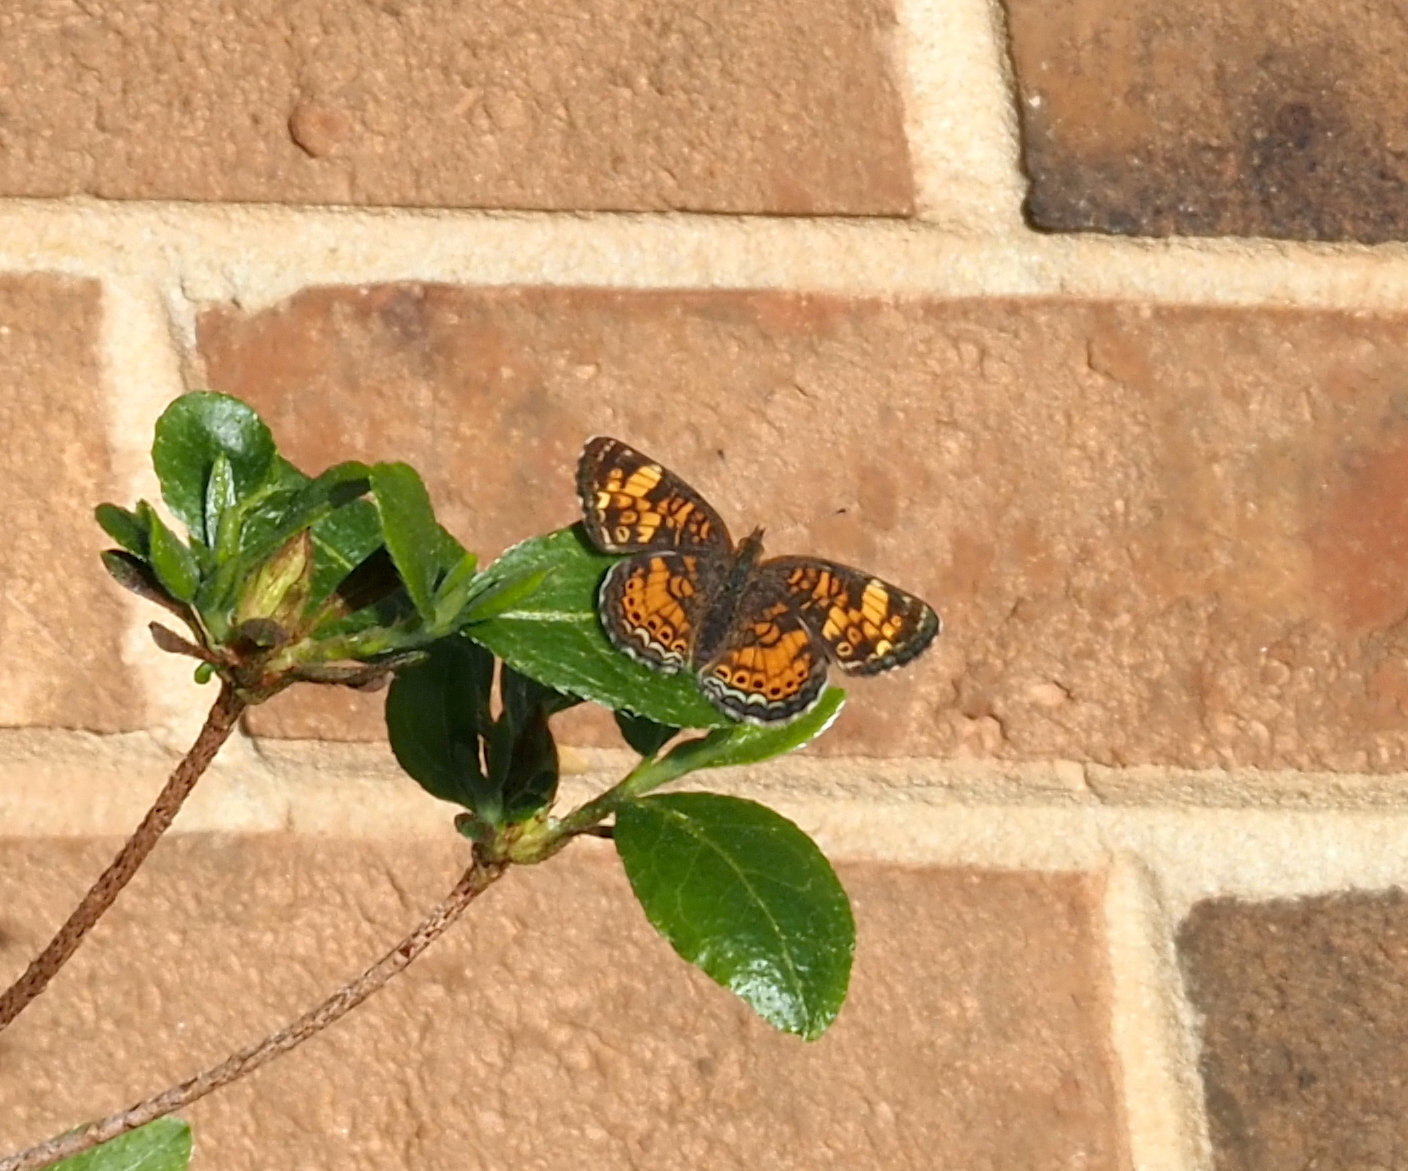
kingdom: Animalia
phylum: Arthropoda
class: Insecta
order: Lepidoptera
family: Nymphalidae
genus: Phyciodes
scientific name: Phyciodes tharos
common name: Pearl crescent
